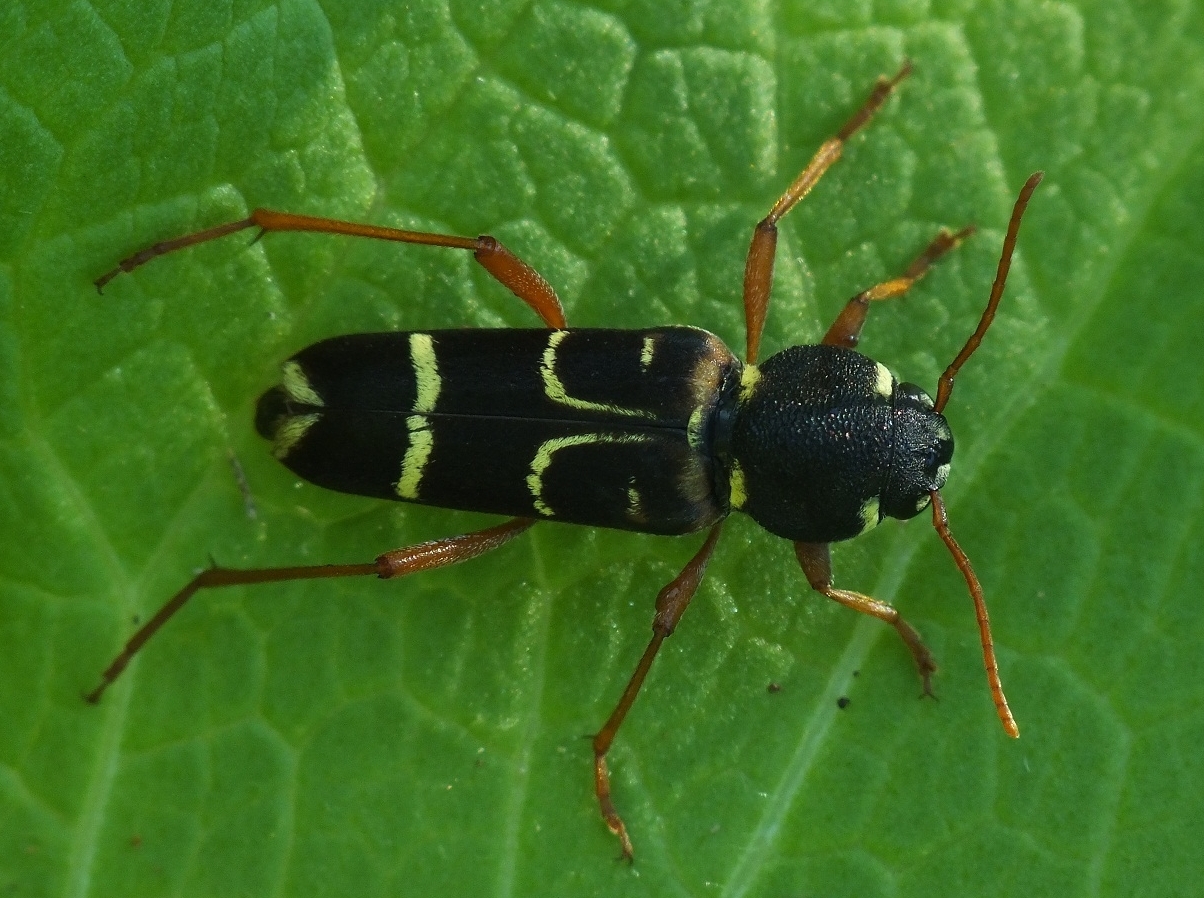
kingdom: Animalia
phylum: Arthropoda
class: Insecta
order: Coleoptera
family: Cerambycidae
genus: Xylotrechus
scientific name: Xylotrechus arvicola
